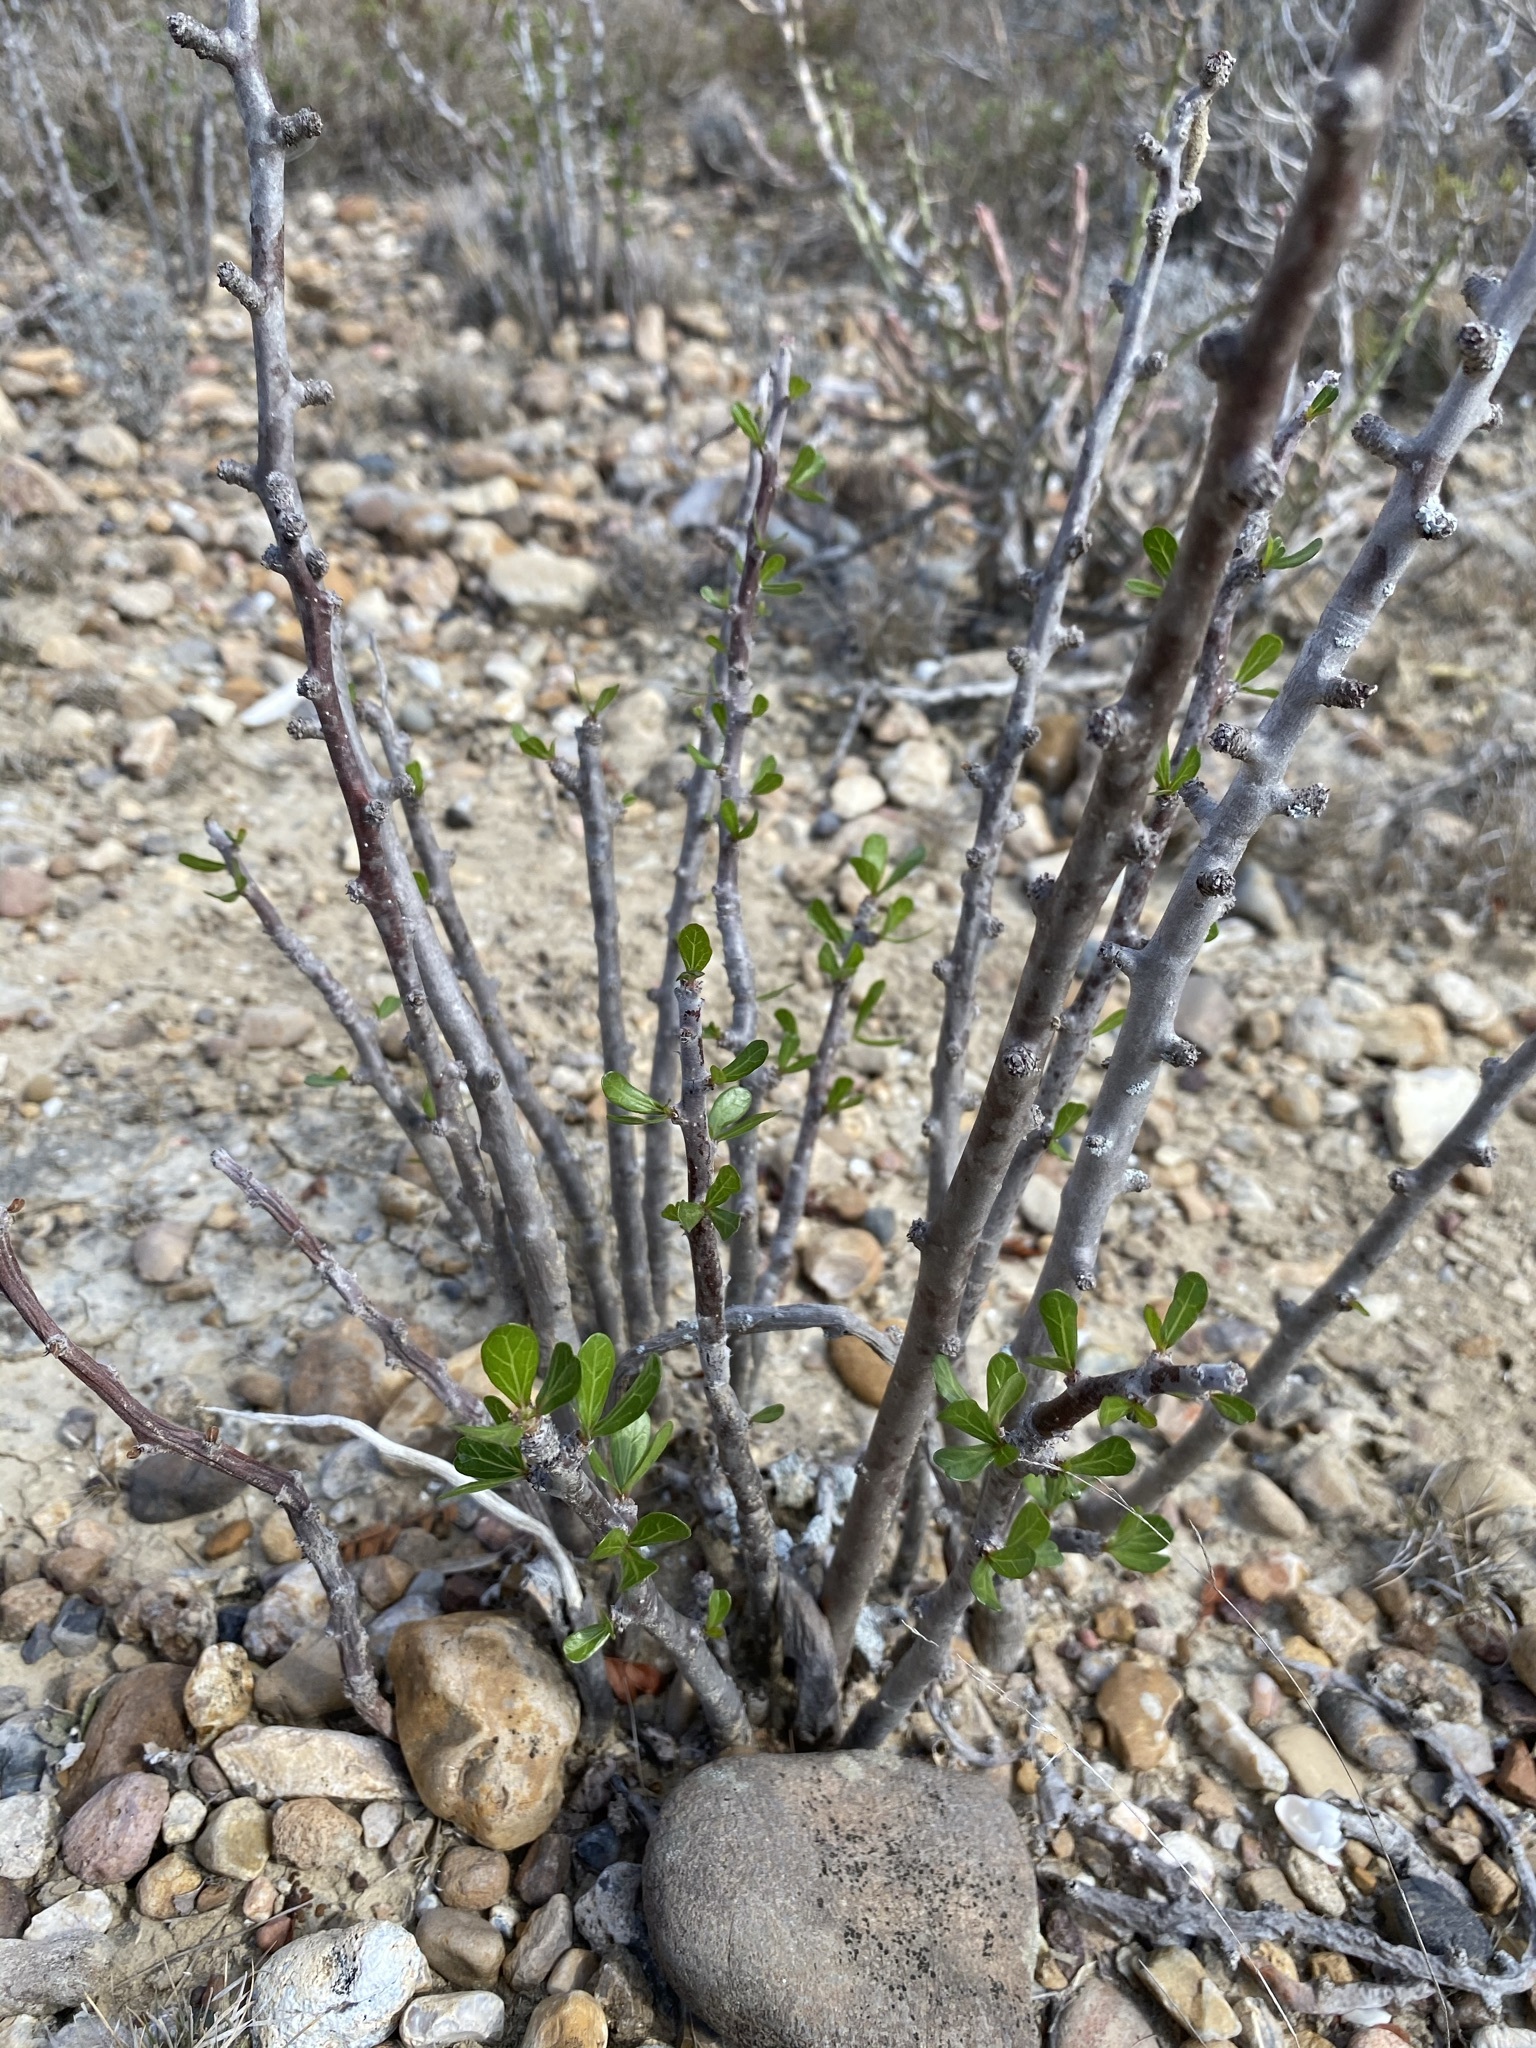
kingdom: Plantae
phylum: Tracheophyta
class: Magnoliopsida
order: Malpighiales
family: Euphorbiaceae
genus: Jatropha
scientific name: Jatropha dioica
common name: Leatherstem
